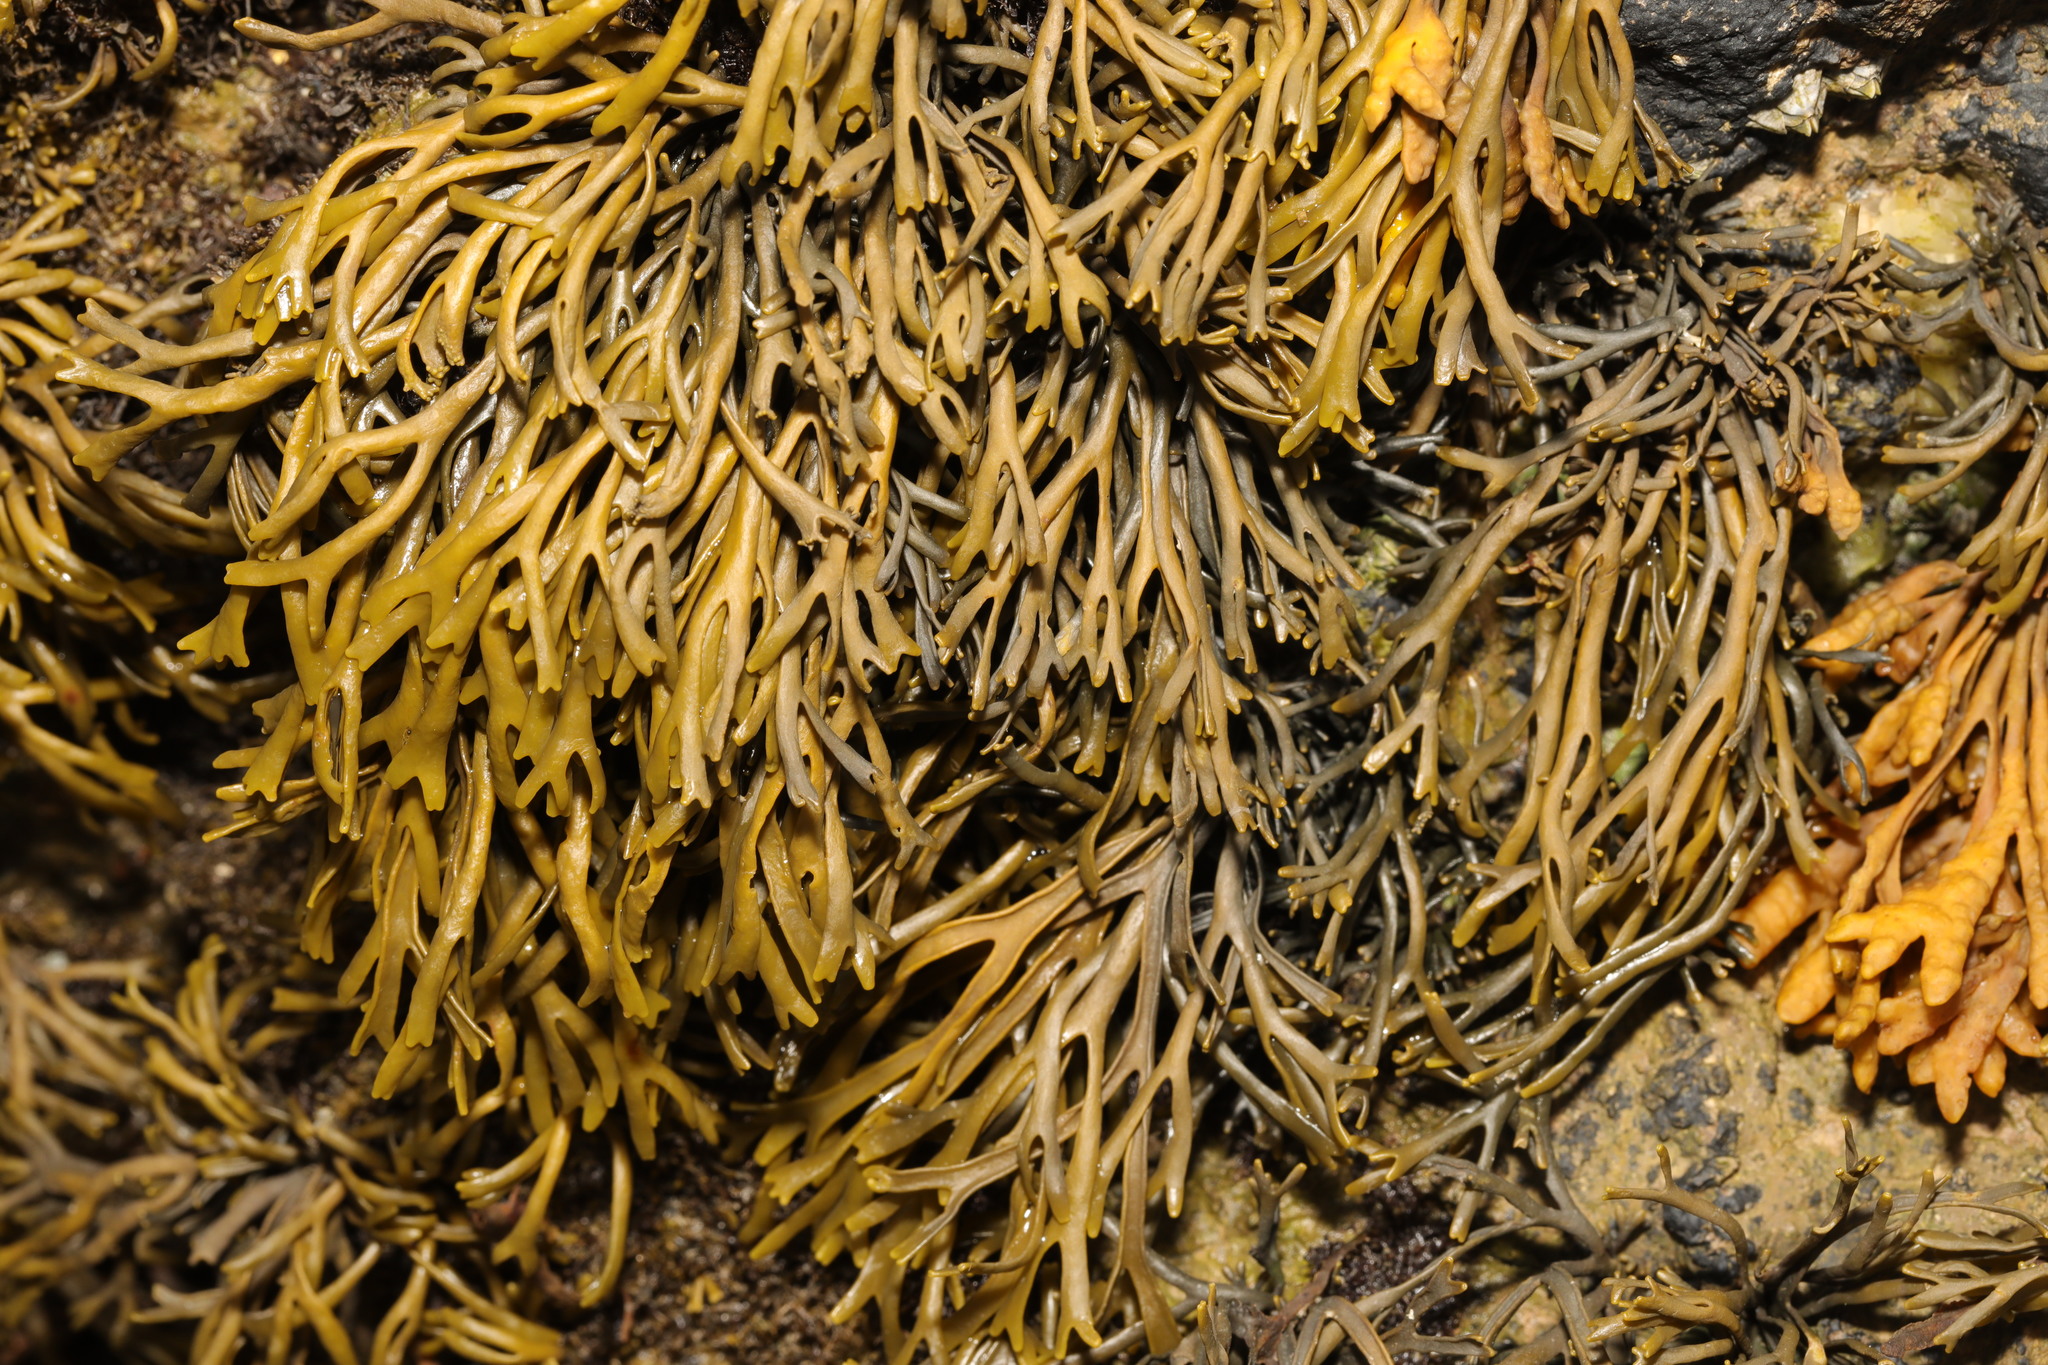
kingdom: Chromista
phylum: Ochrophyta
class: Phaeophyceae
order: Fucales
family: Fucaceae
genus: Pelvetia
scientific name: Pelvetia canaliculata
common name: Channelled wrack
